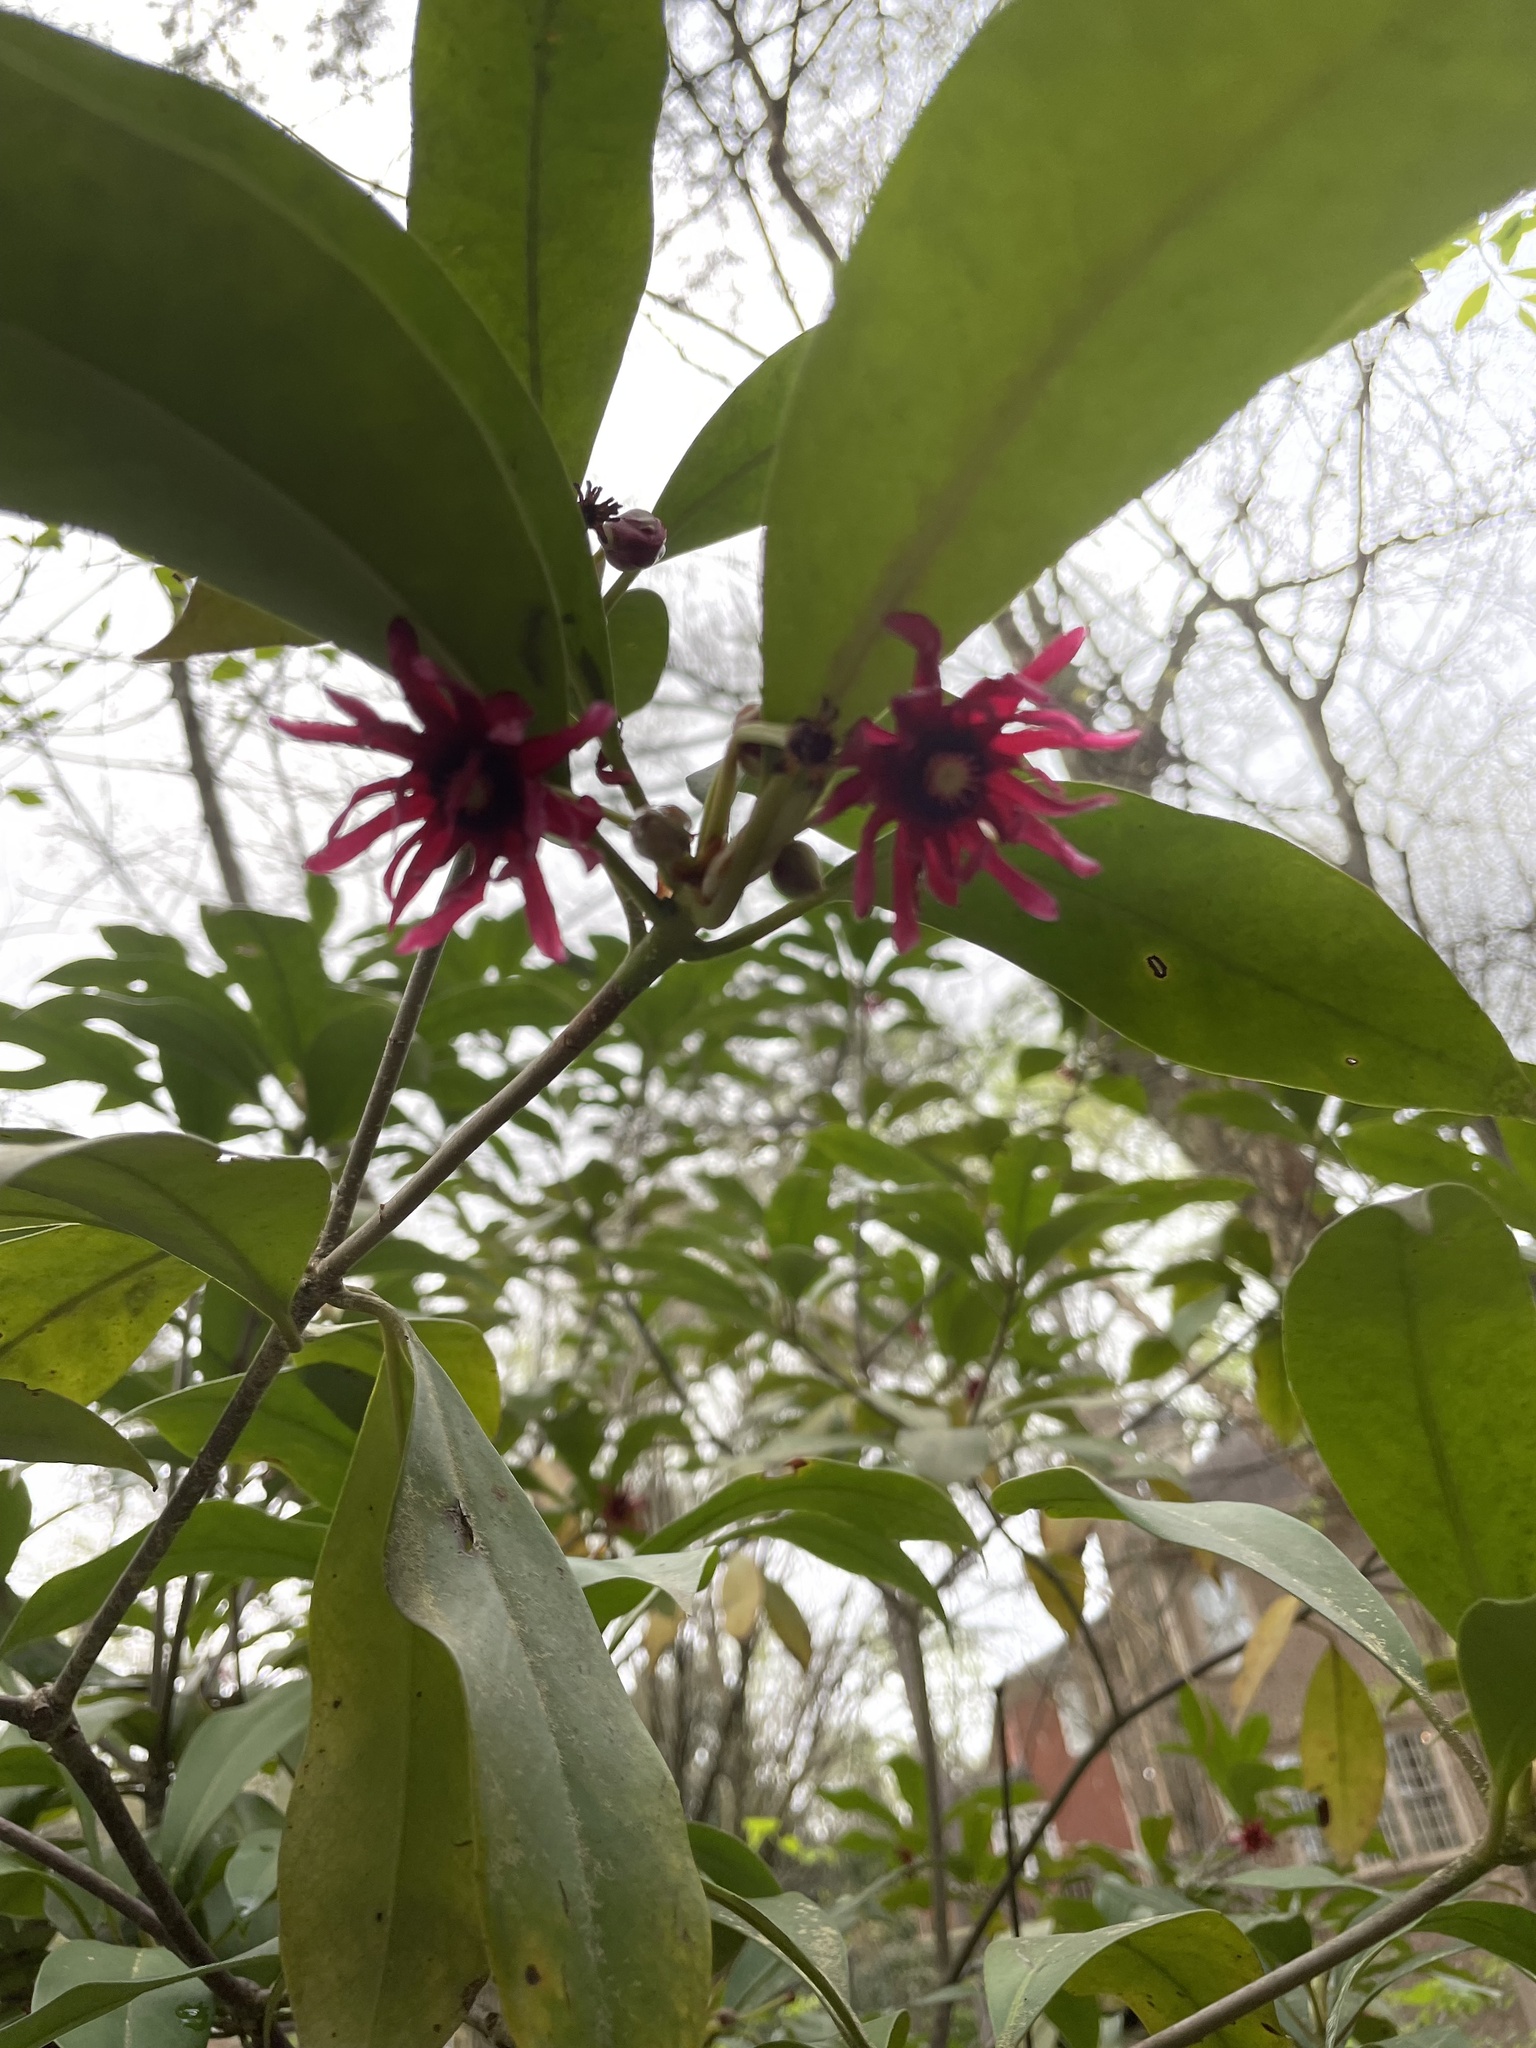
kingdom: Plantae
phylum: Tracheophyta
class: Magnoliopsida
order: Austrobaileyales
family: Schisandraceae
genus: Illicium
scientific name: Illicium floridanum
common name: Florida anisetree
